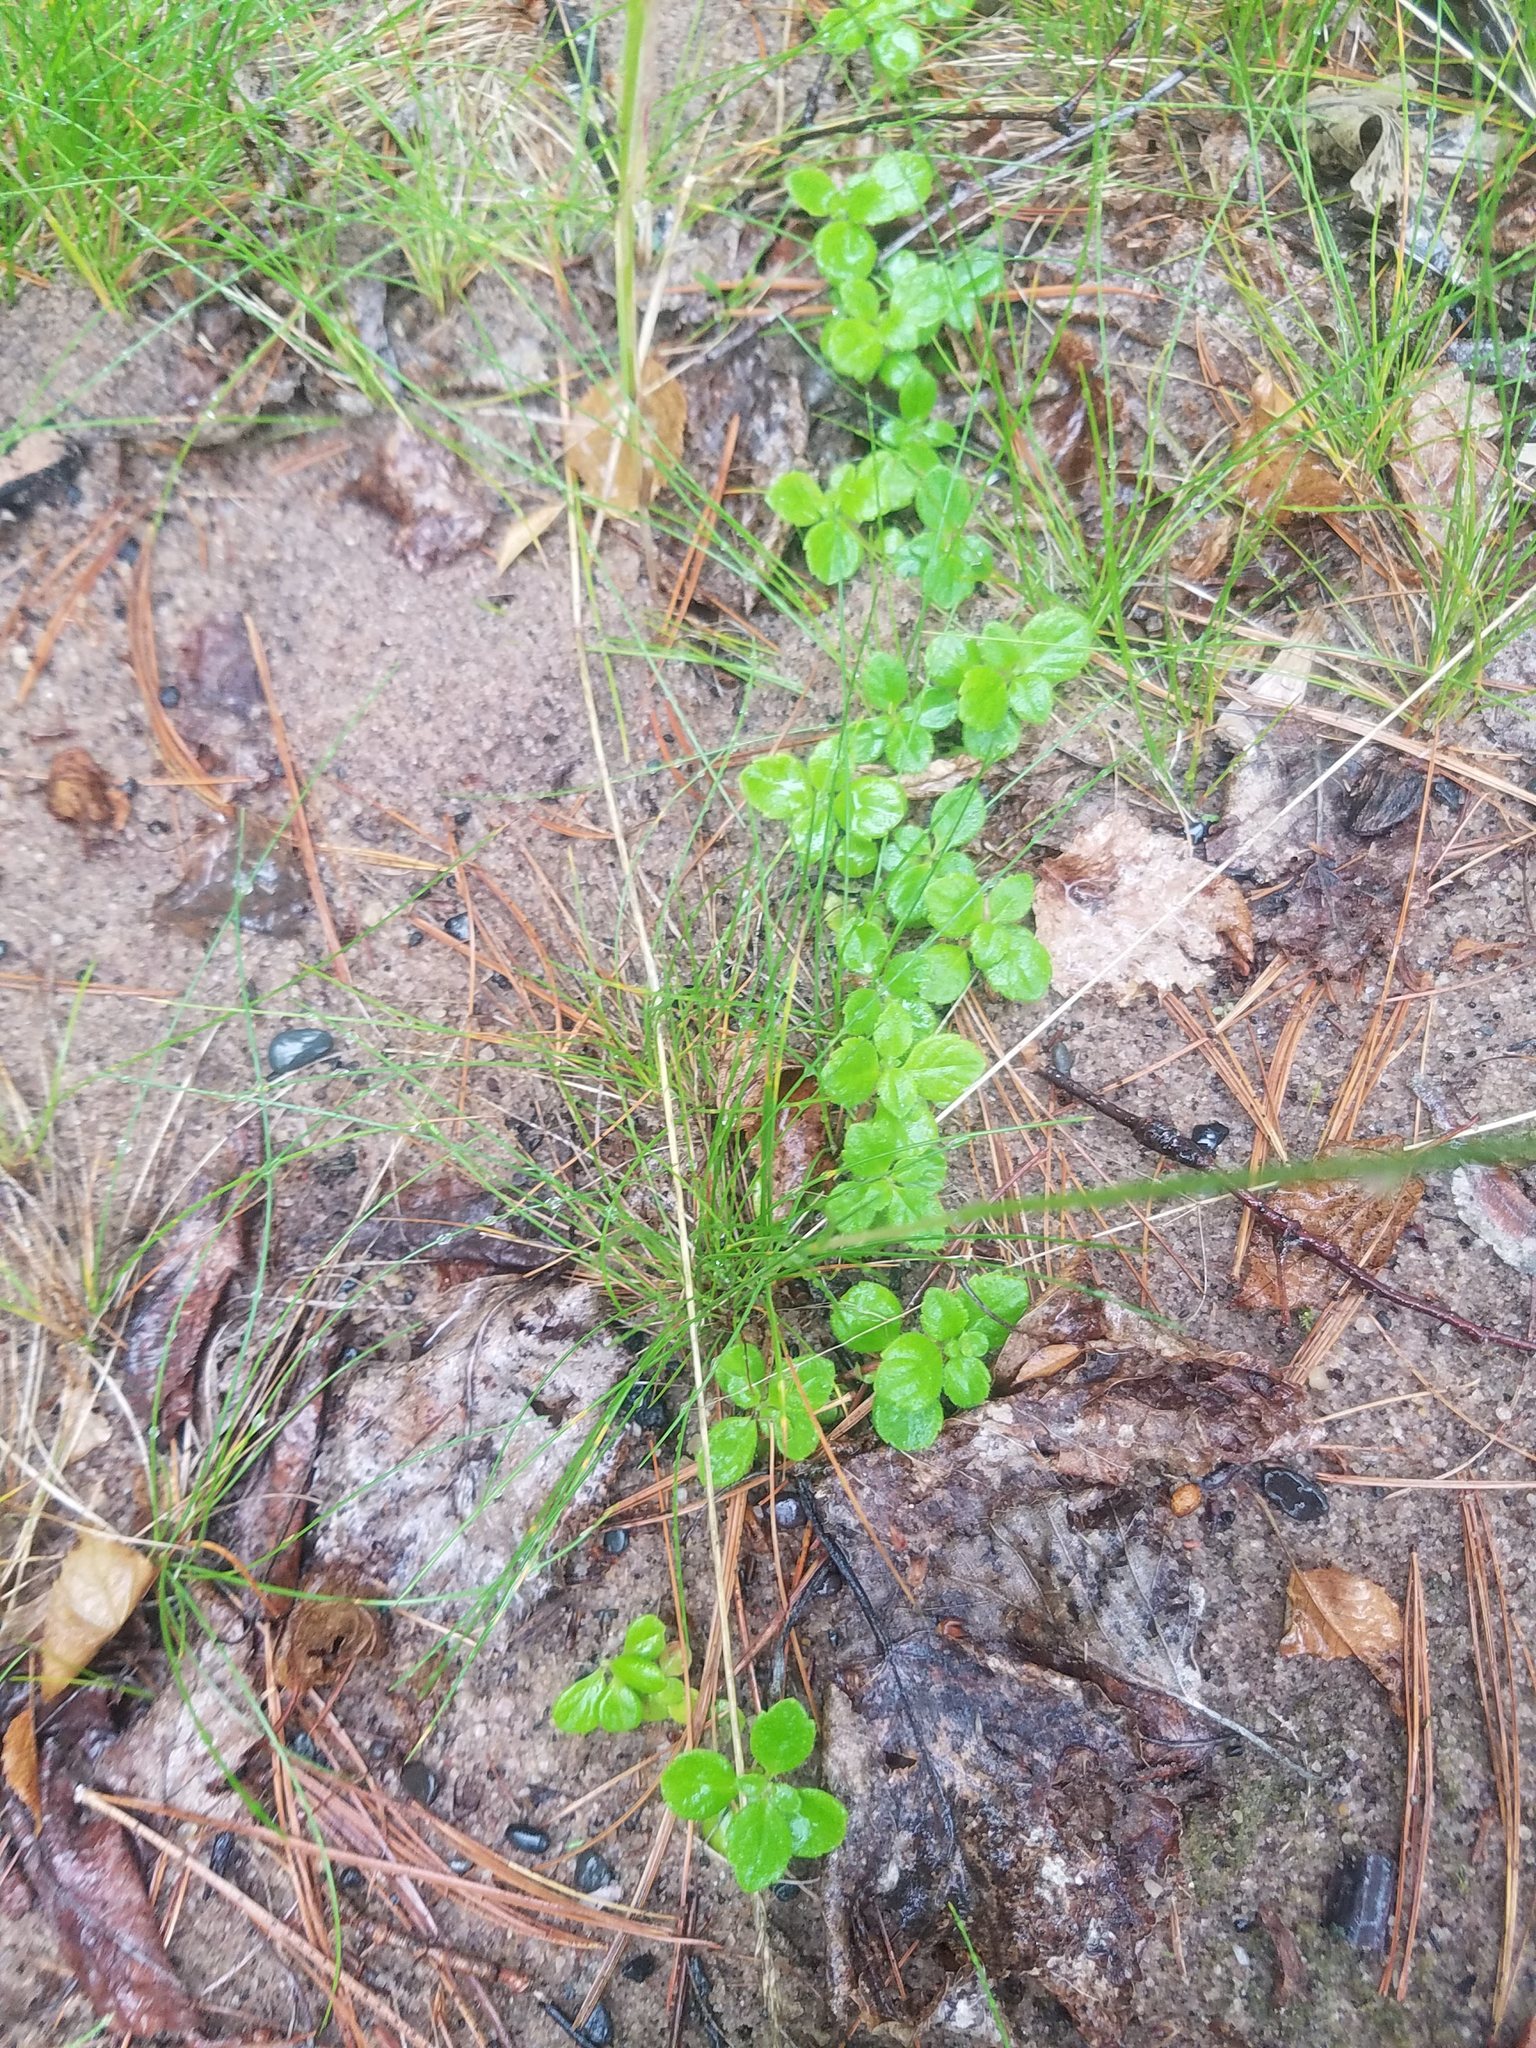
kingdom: Plantae
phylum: Tracheophyta
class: Magnoliopsida
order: Dipsacales
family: Caprifoliaceae
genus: Linnaea
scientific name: Linnaea borealis
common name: Twinflower
